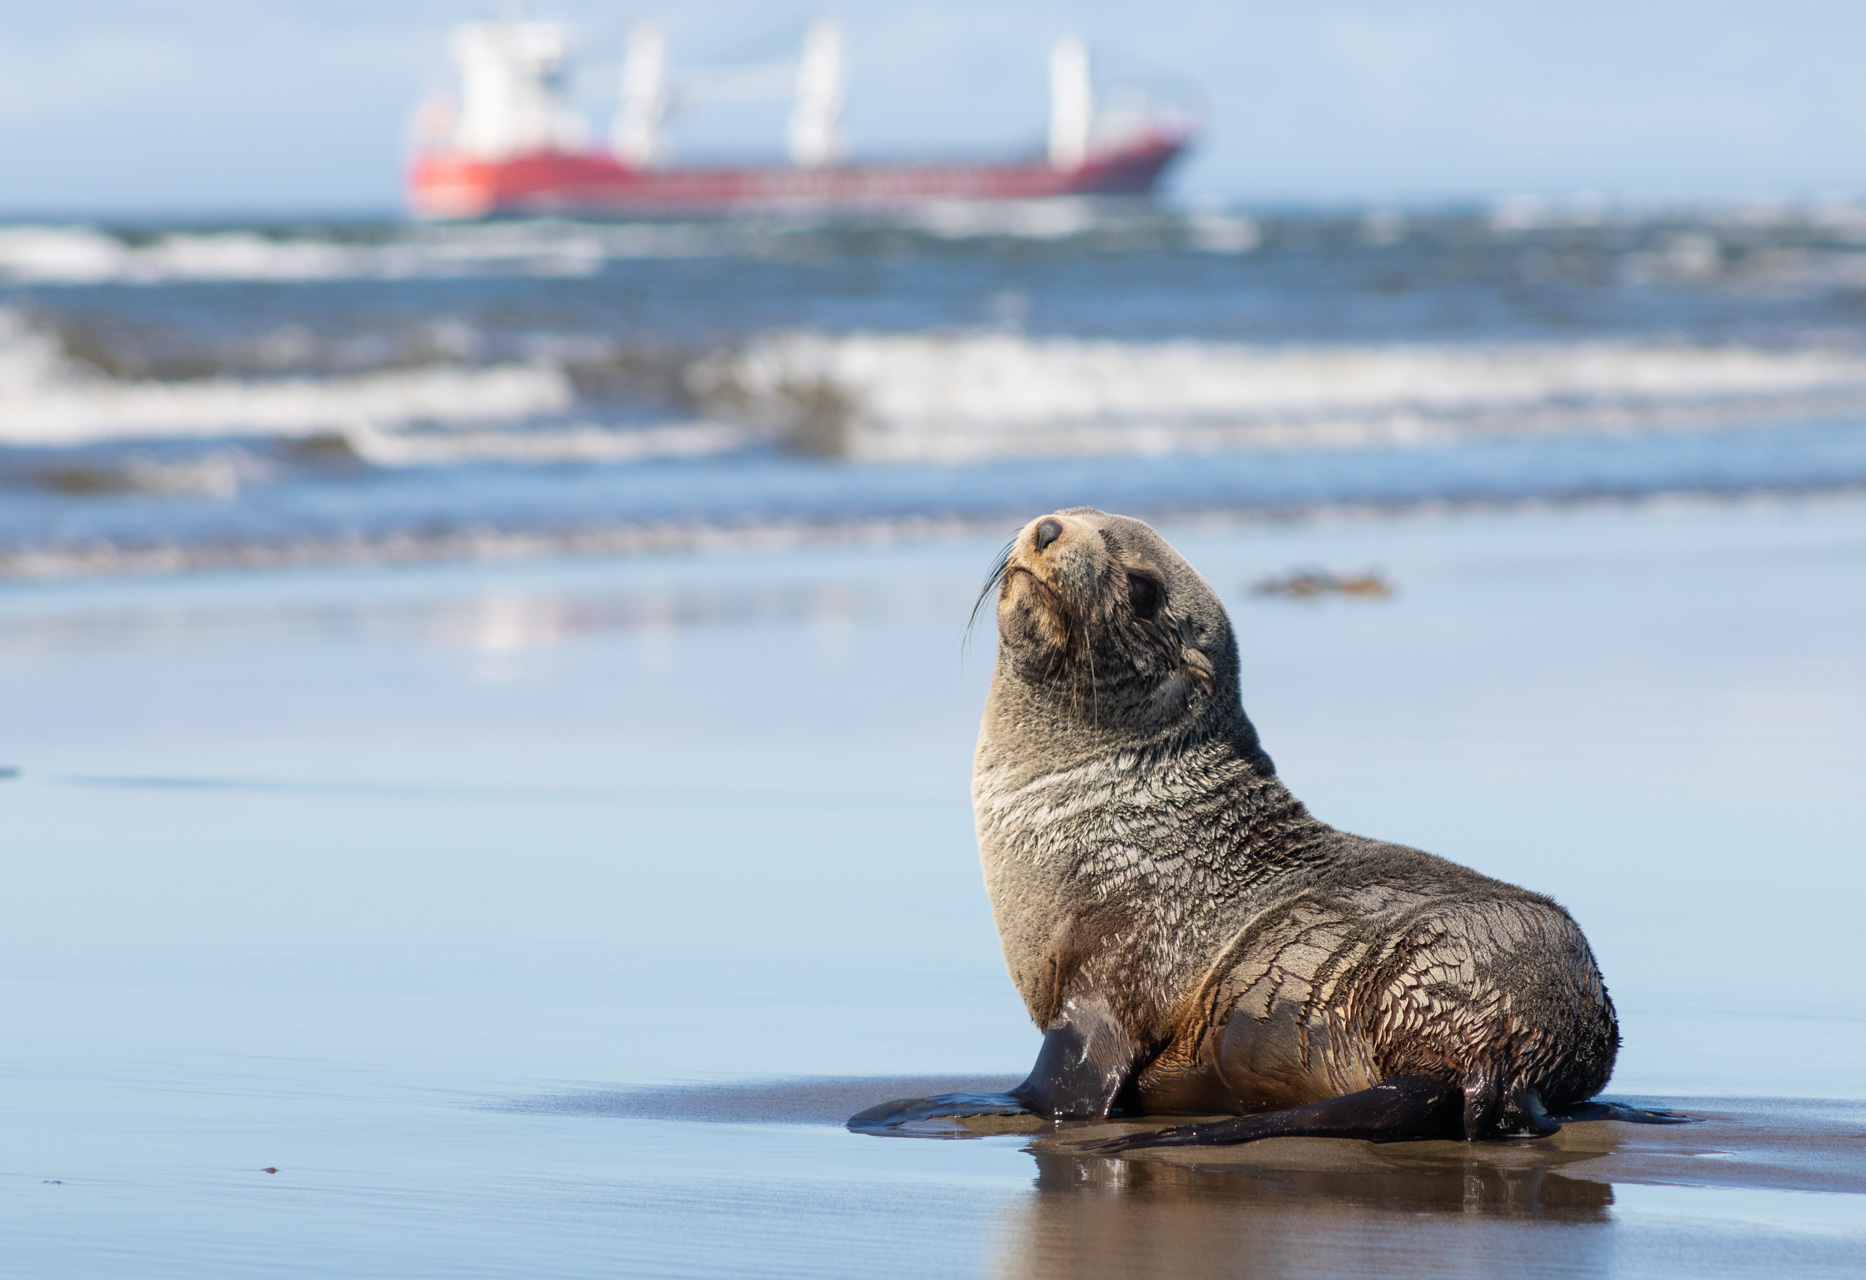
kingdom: Animalia
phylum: Chordata
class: Mammalia
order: Carnivora
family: Otariidae
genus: Arctocephalus
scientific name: Arctocephalus australis
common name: South american fur seal
